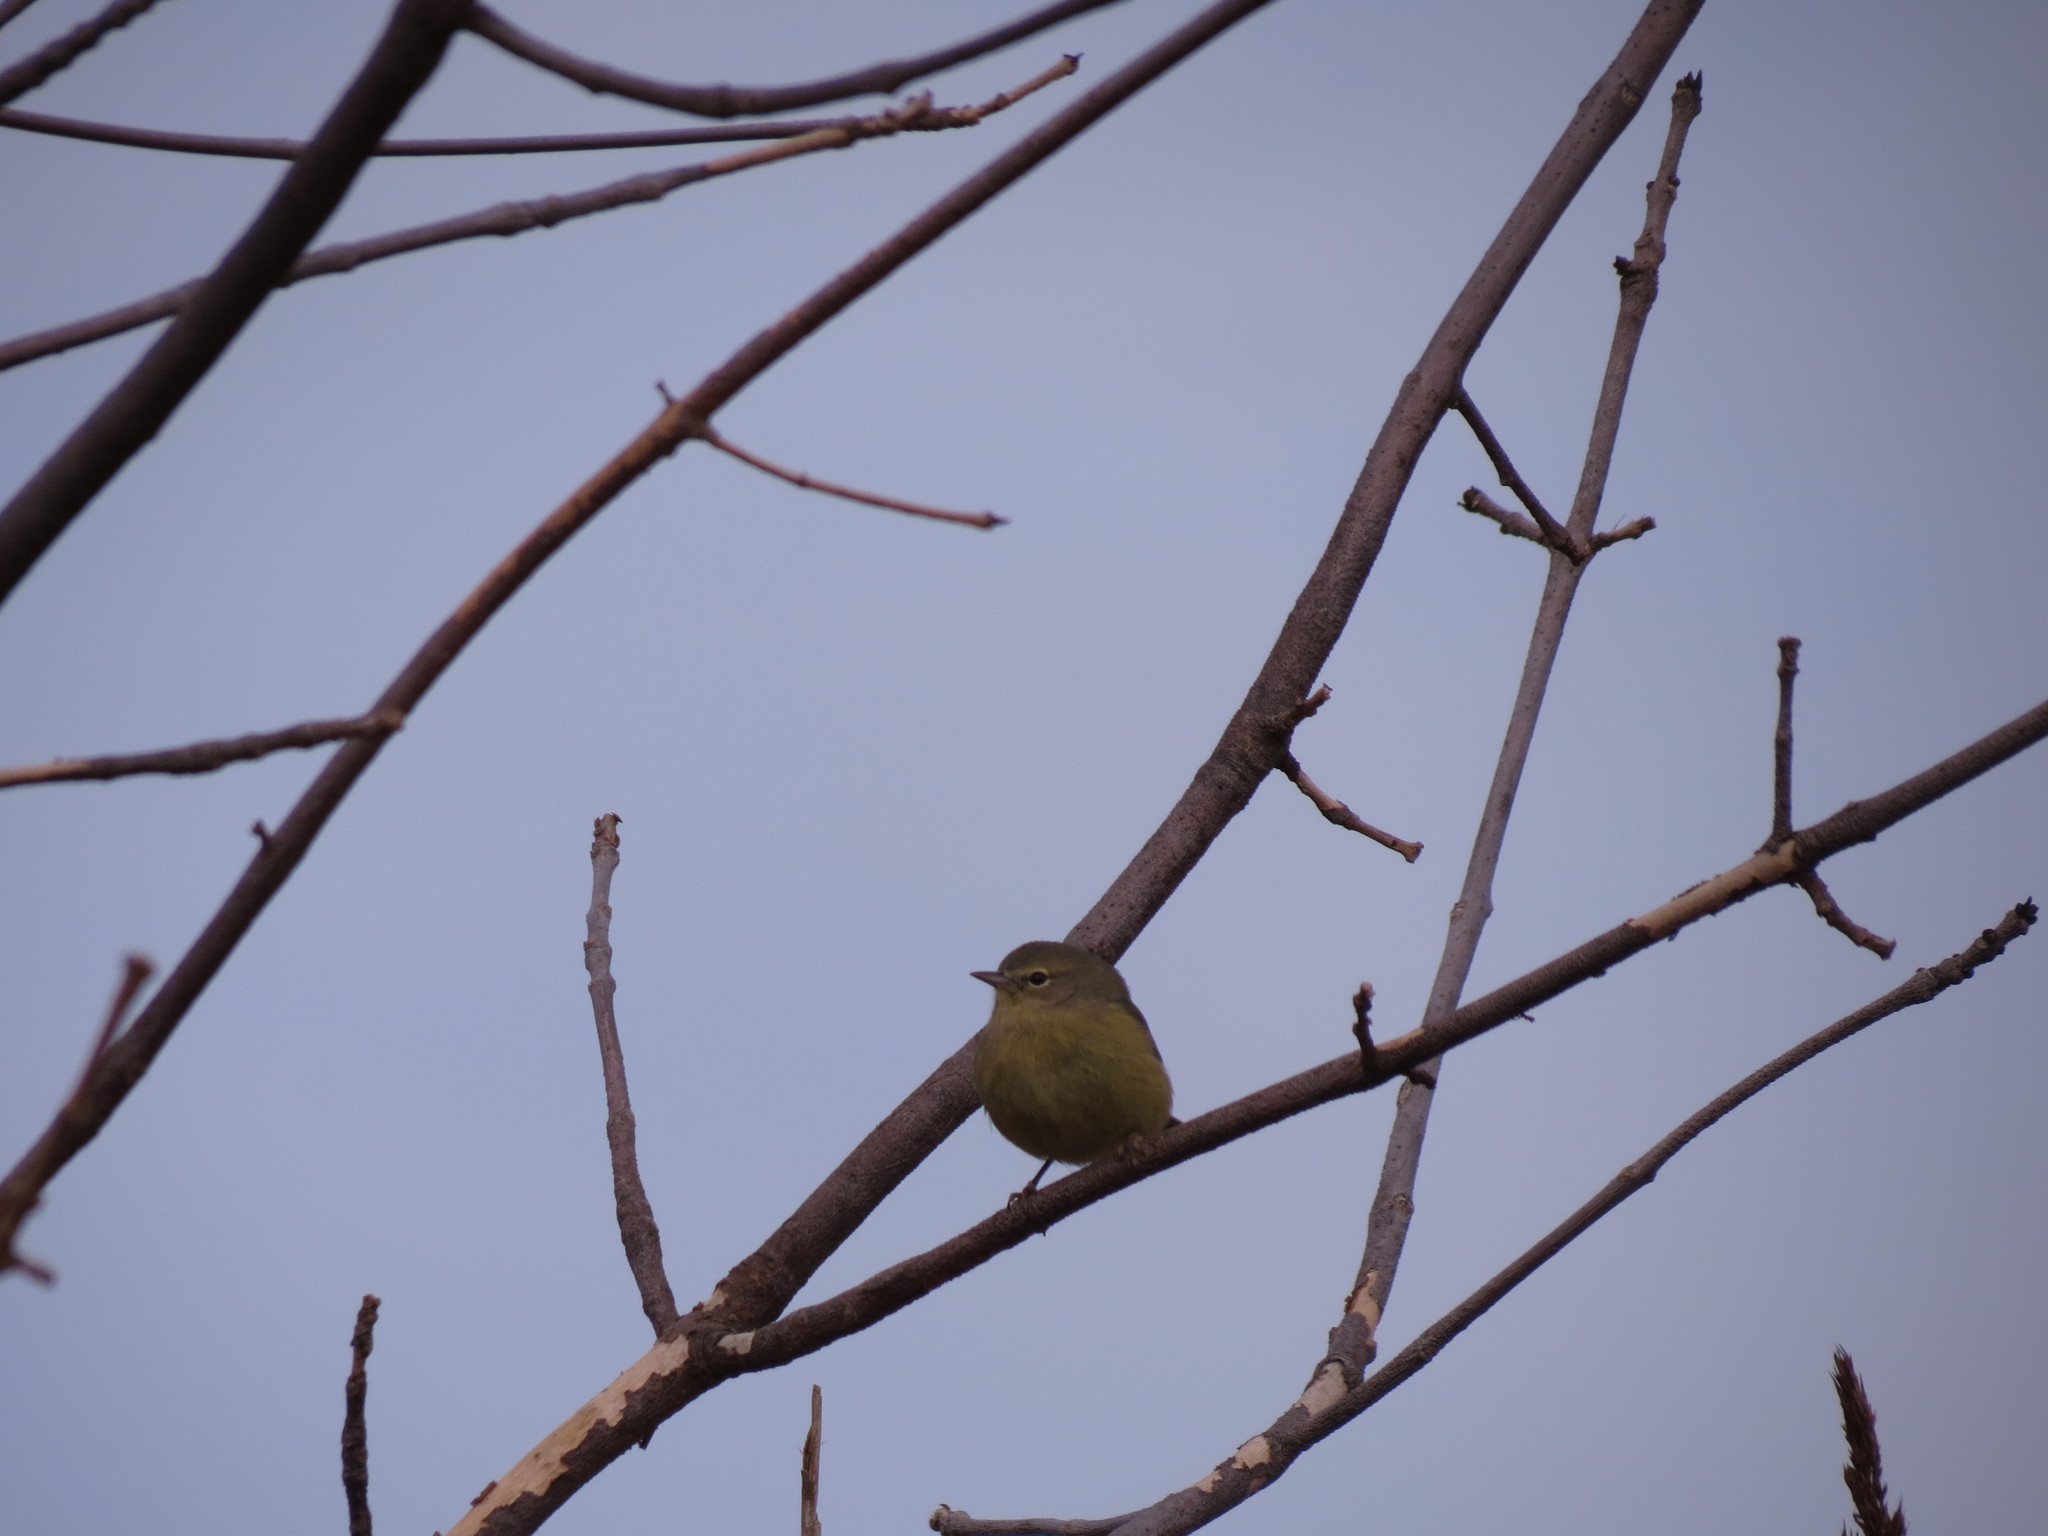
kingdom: Animalia
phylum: Chordata
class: Aves
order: Passeriformes
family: Parulidae
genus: Leiothlypis
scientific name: Leiothlypis celata
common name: Orange-crowned warbler
